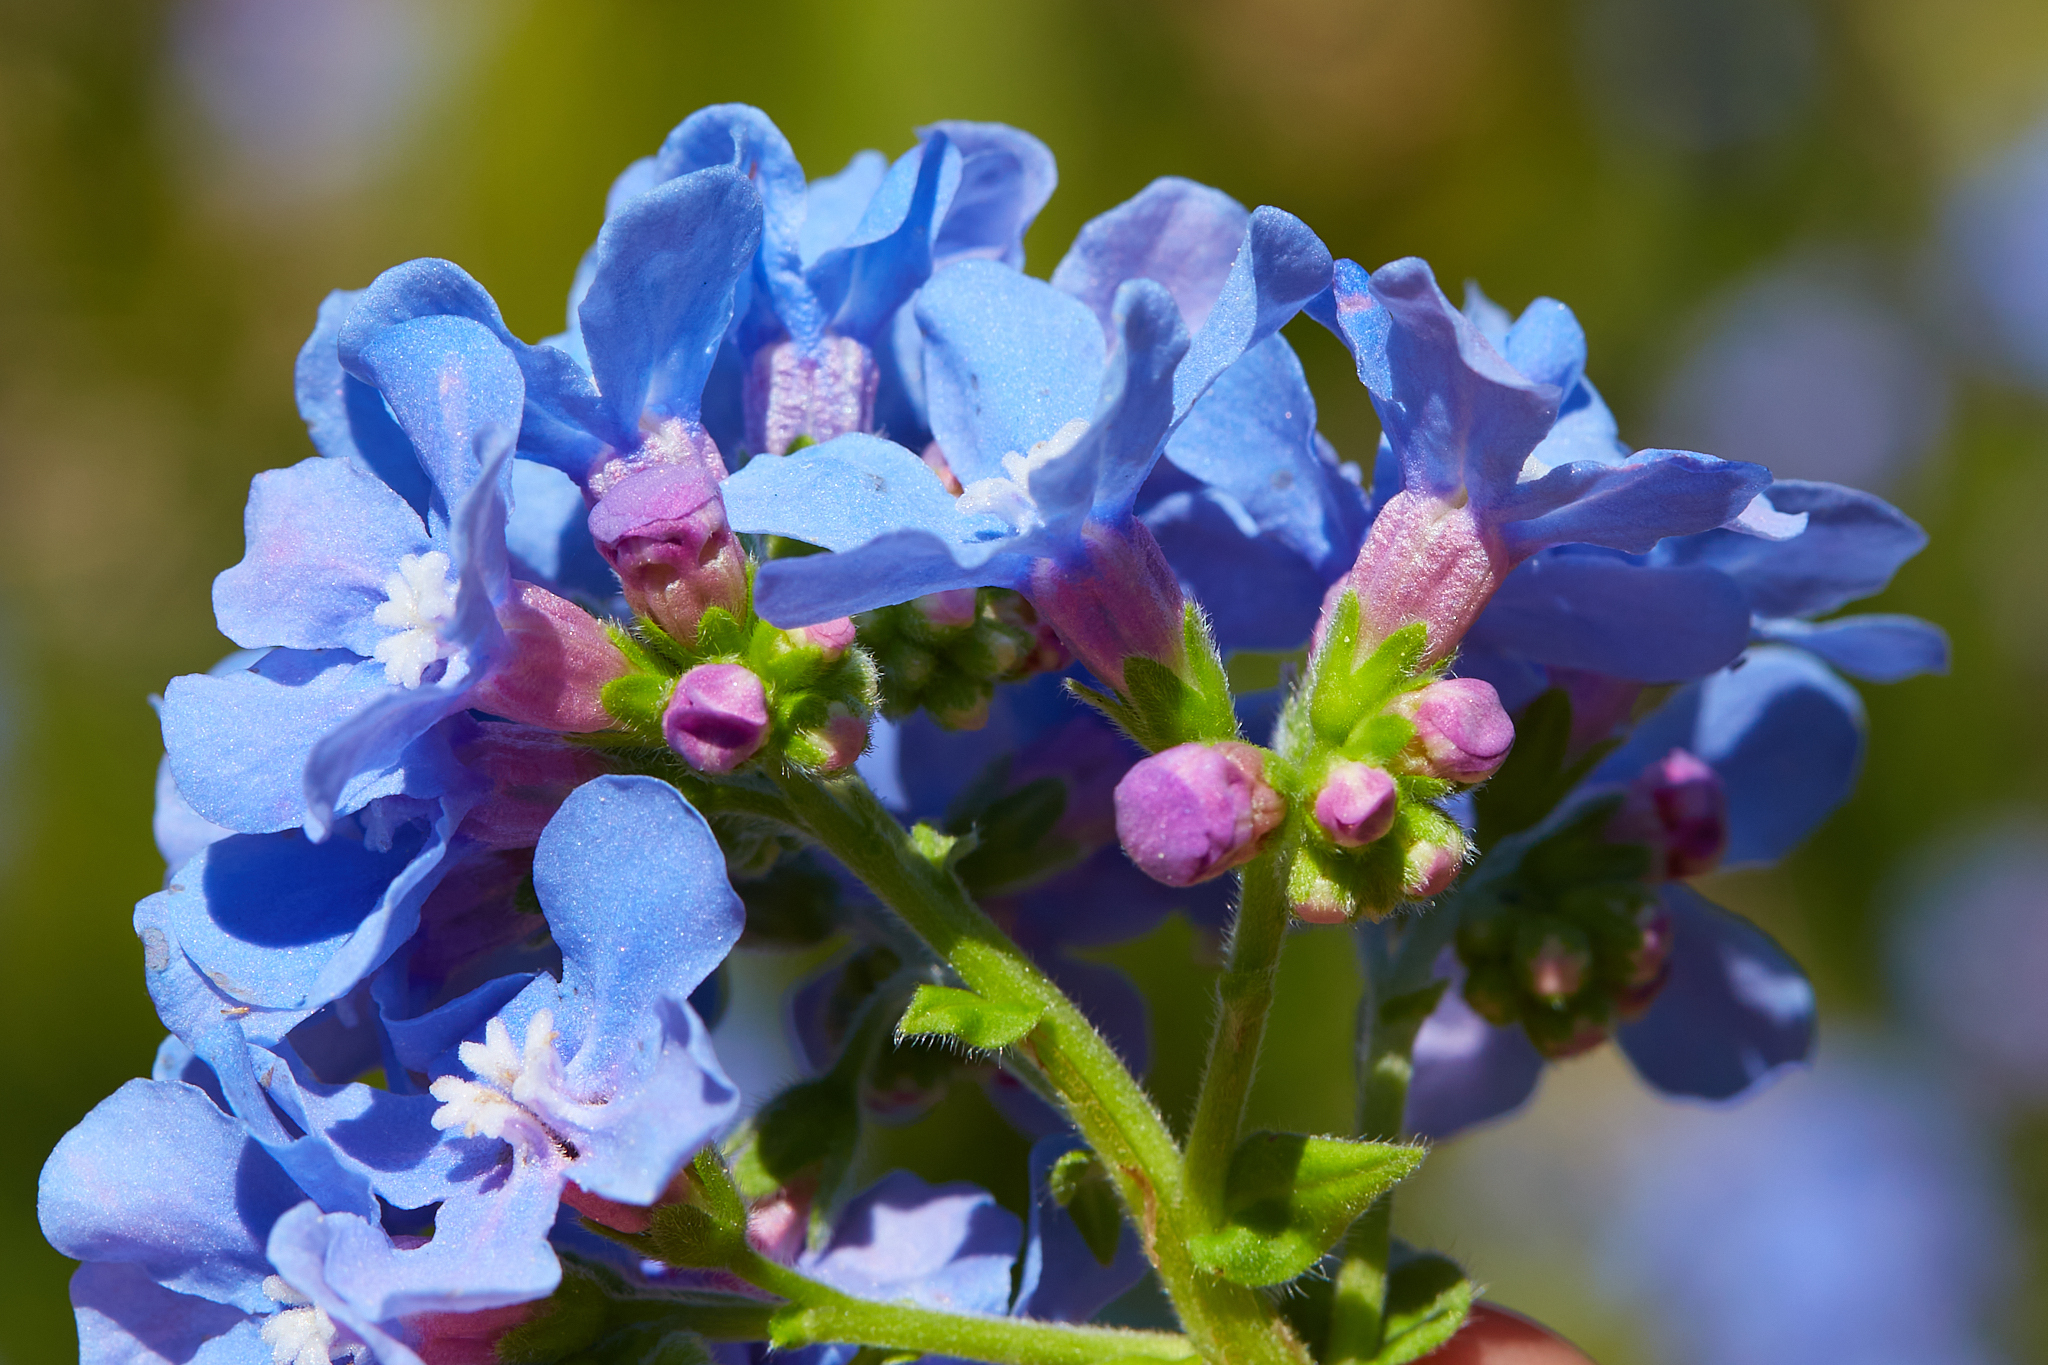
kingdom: Plantae
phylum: Tracheophyta
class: Magnoliopsida
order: Boraginales
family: Boraginaceae
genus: Hackelia
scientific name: Hackelia velutina
